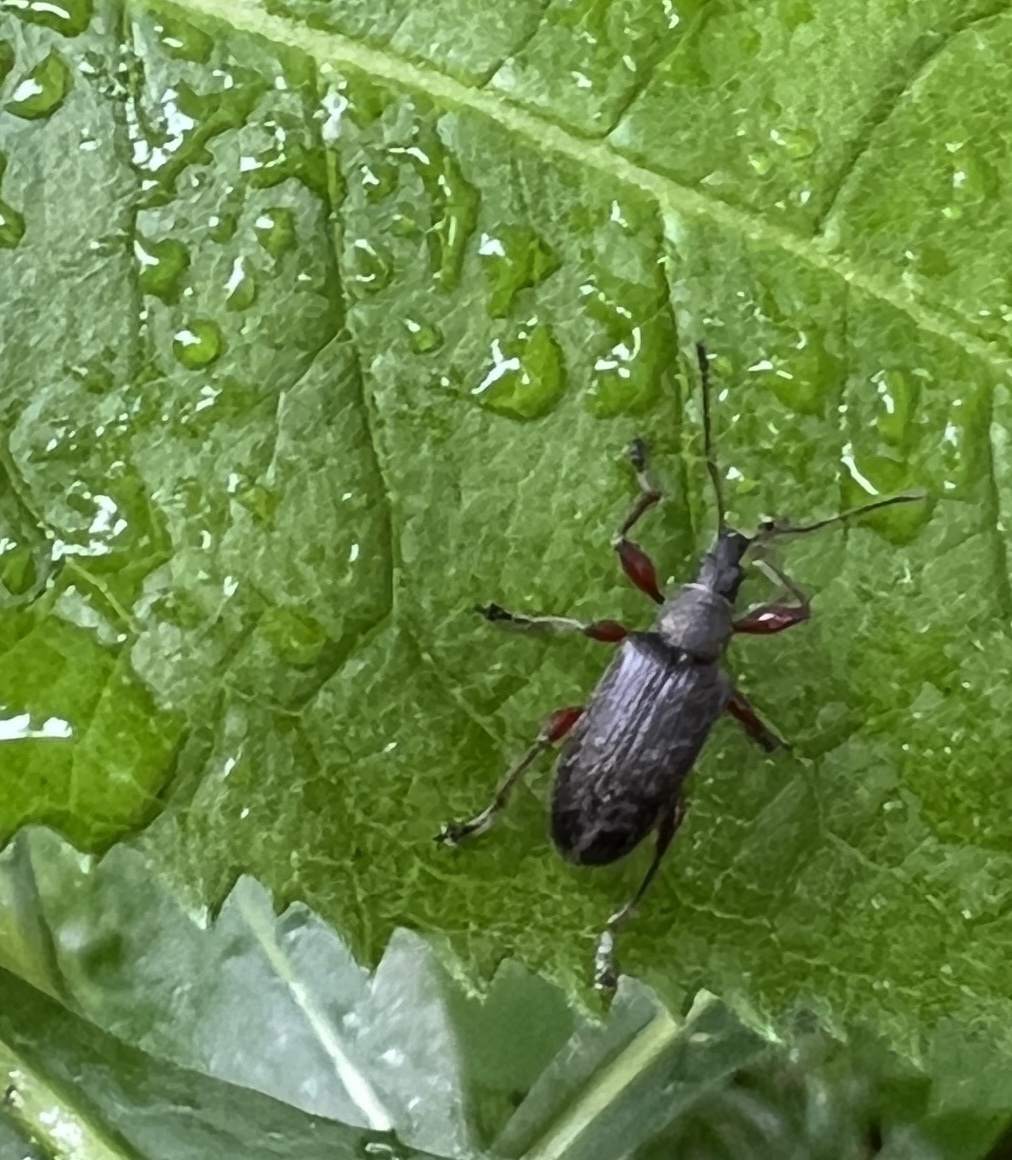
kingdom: Animalia
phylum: Arthropoda
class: Insecta
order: Coleoptera
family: Curculionidae
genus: Phyllobius
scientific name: Phyllobius glaucus
